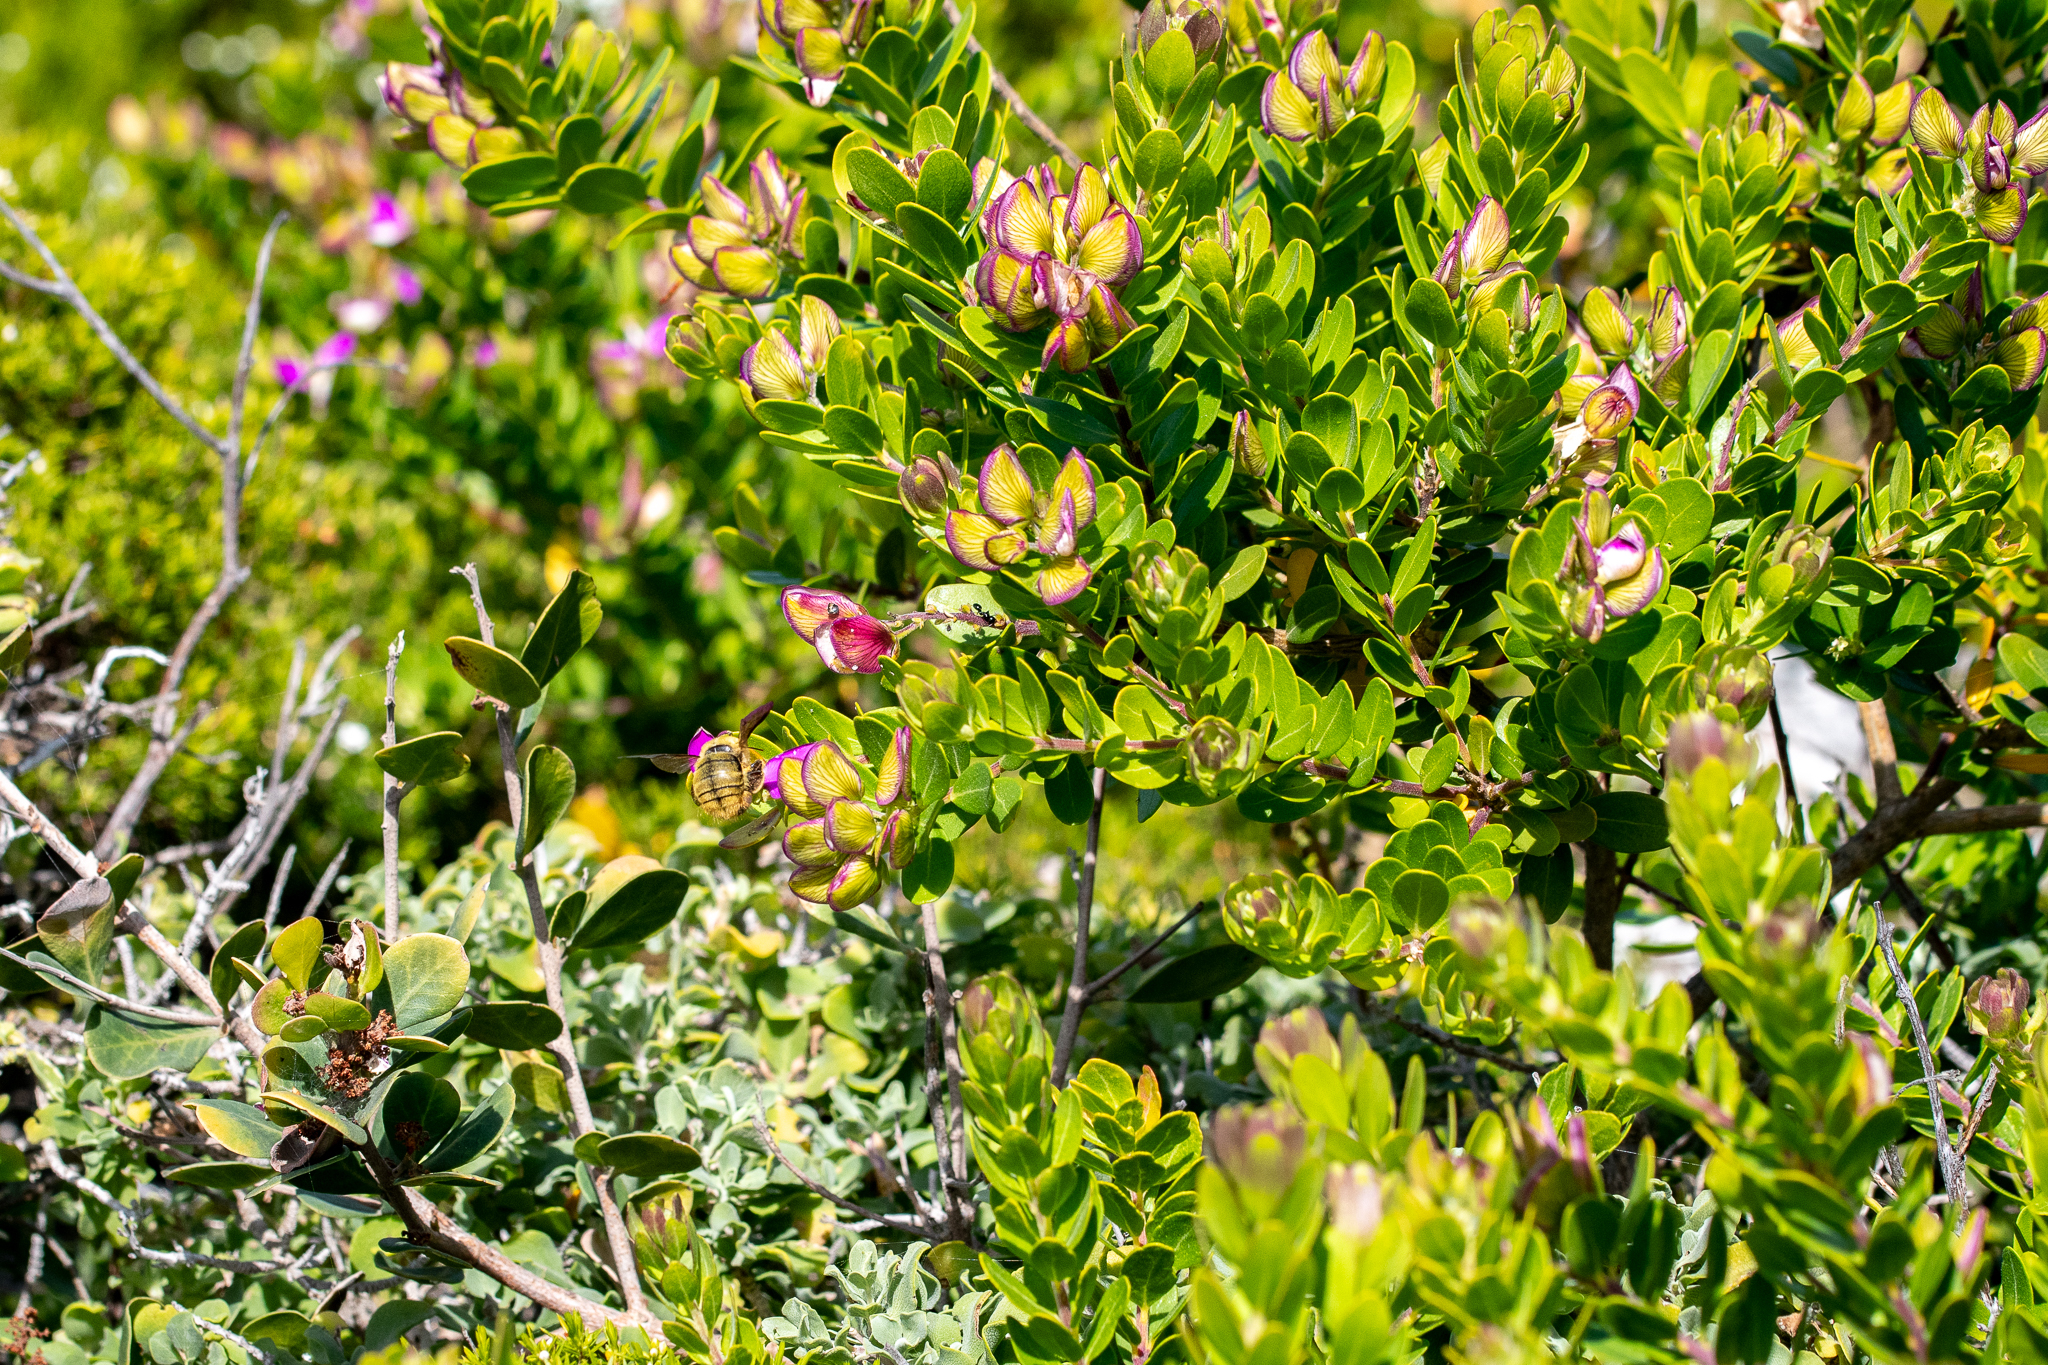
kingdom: Plantae
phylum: Tracheophyta
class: Magnoliopsida
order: Fabales
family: Polygalaceae
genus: Polygala
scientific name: Polygala myrtifolia
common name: Myrtle-leaf milkwort
